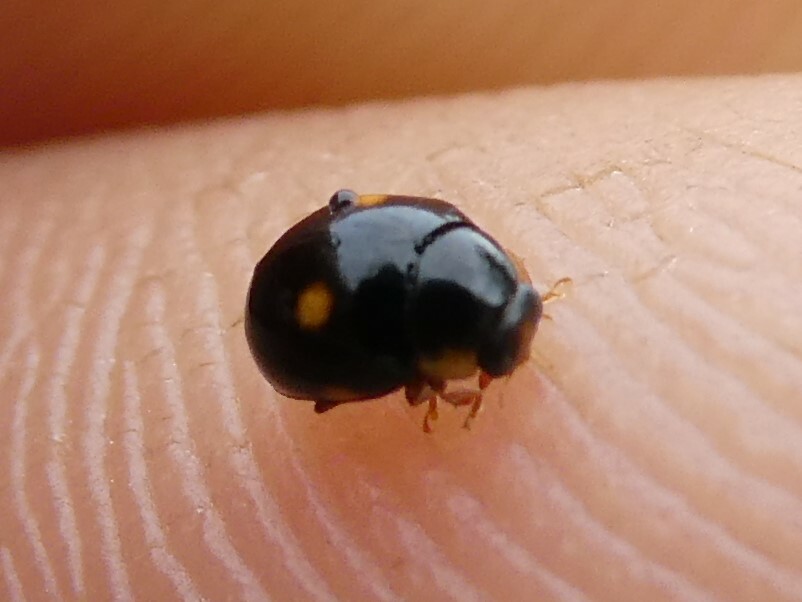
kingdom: Animalia
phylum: Arthropoda
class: Insecta
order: Coleoptera
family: Coccinellidae
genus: Brachiacantha
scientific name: Brachiacantha indubitabilis
